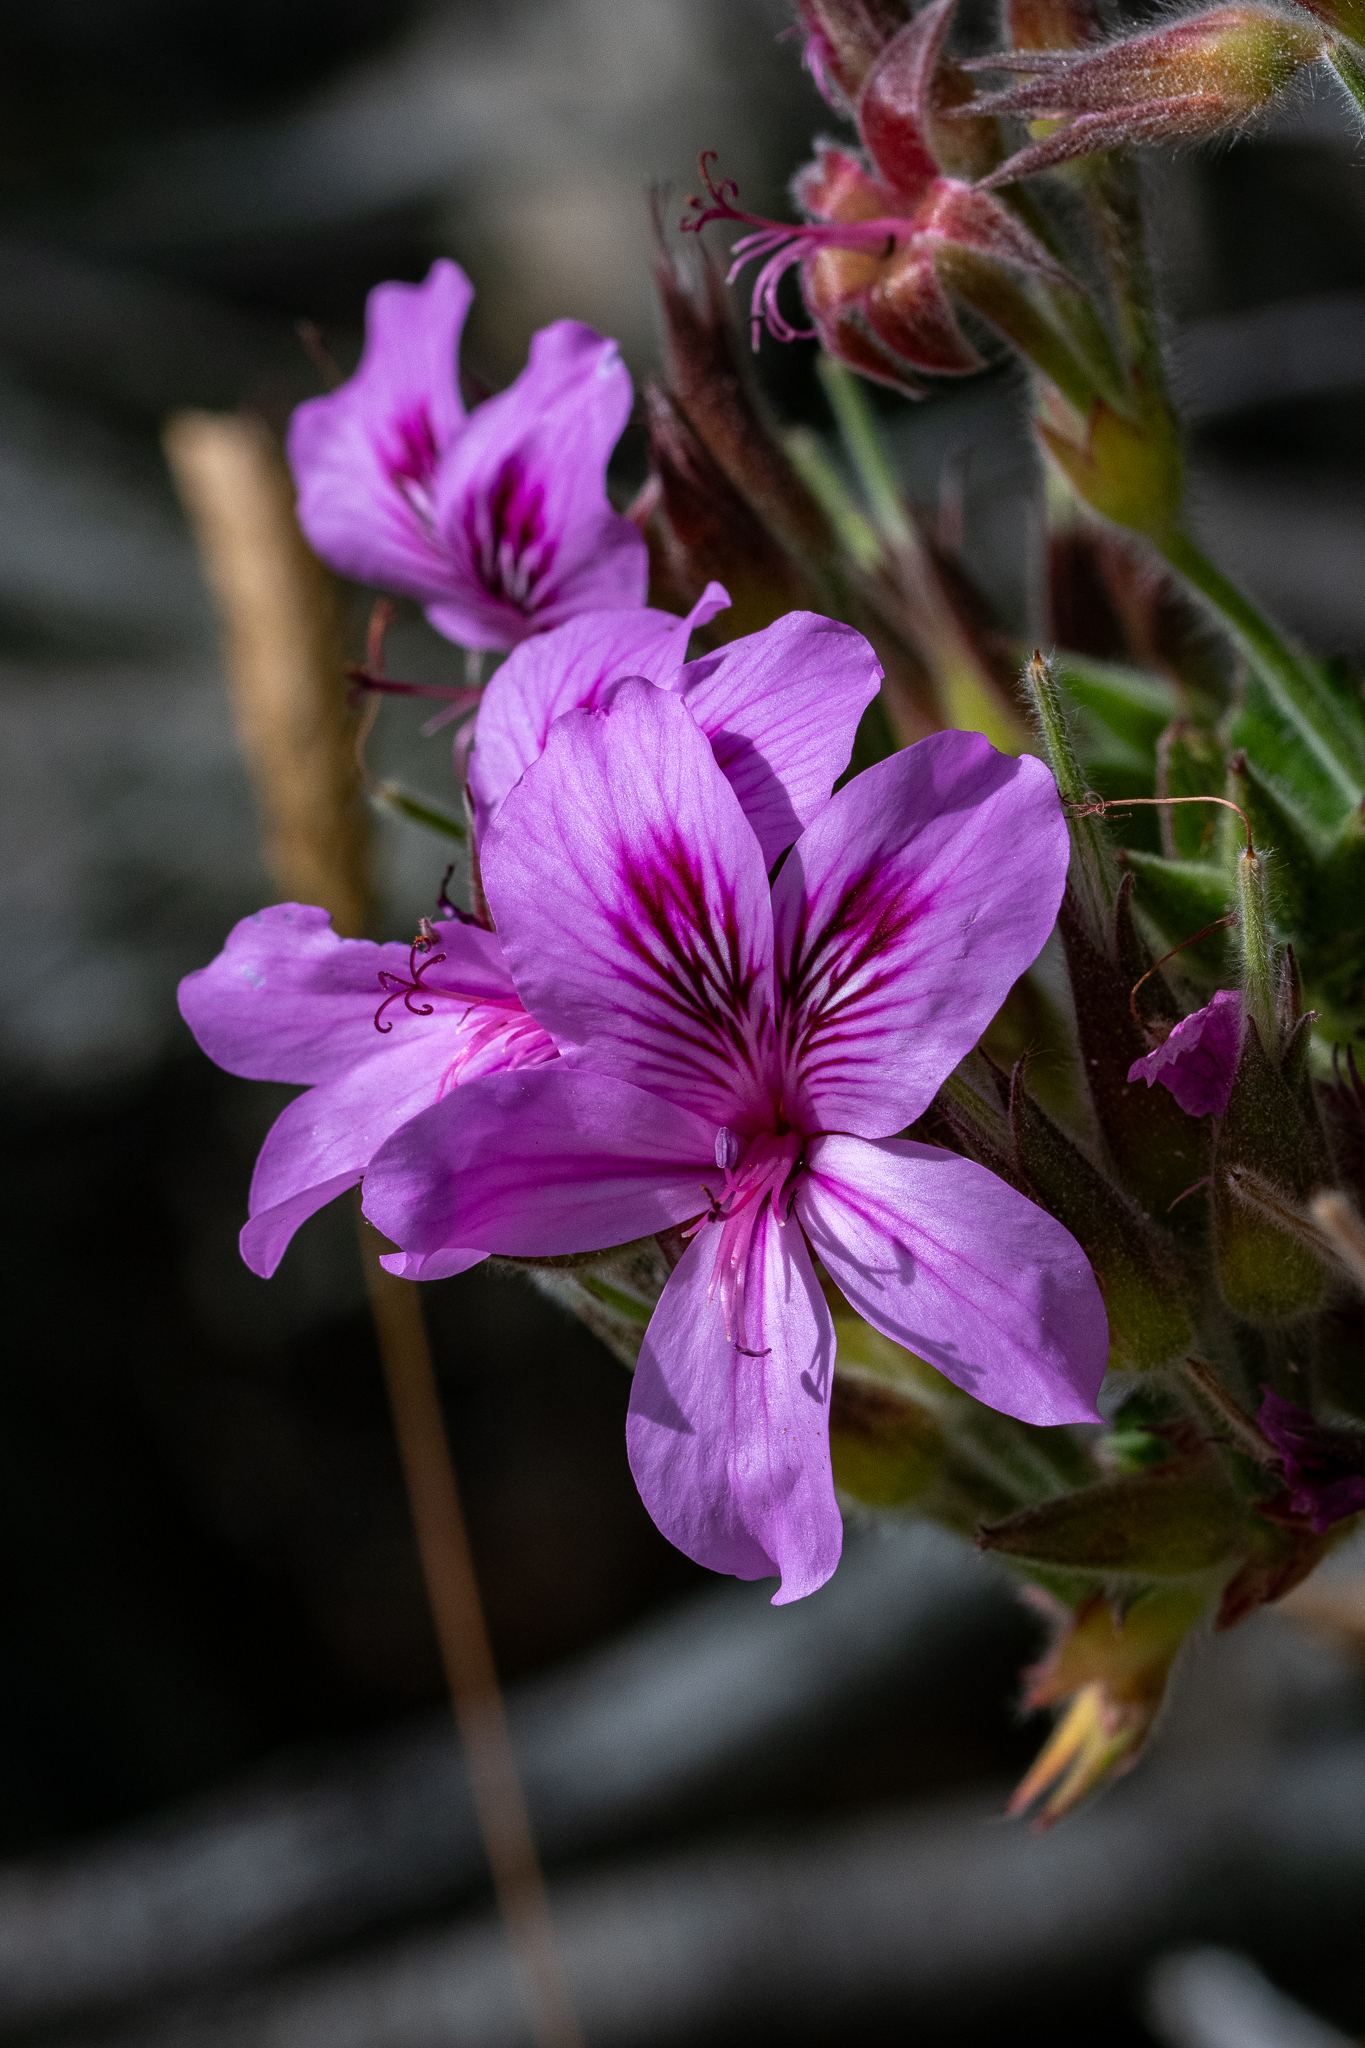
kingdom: Plantae
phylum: Tracheophyta
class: Magnoliopsida
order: Geraniales
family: Geraniaceae
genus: Pelargonium
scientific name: Pelargonium cucullatum
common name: Tree pelargonium
